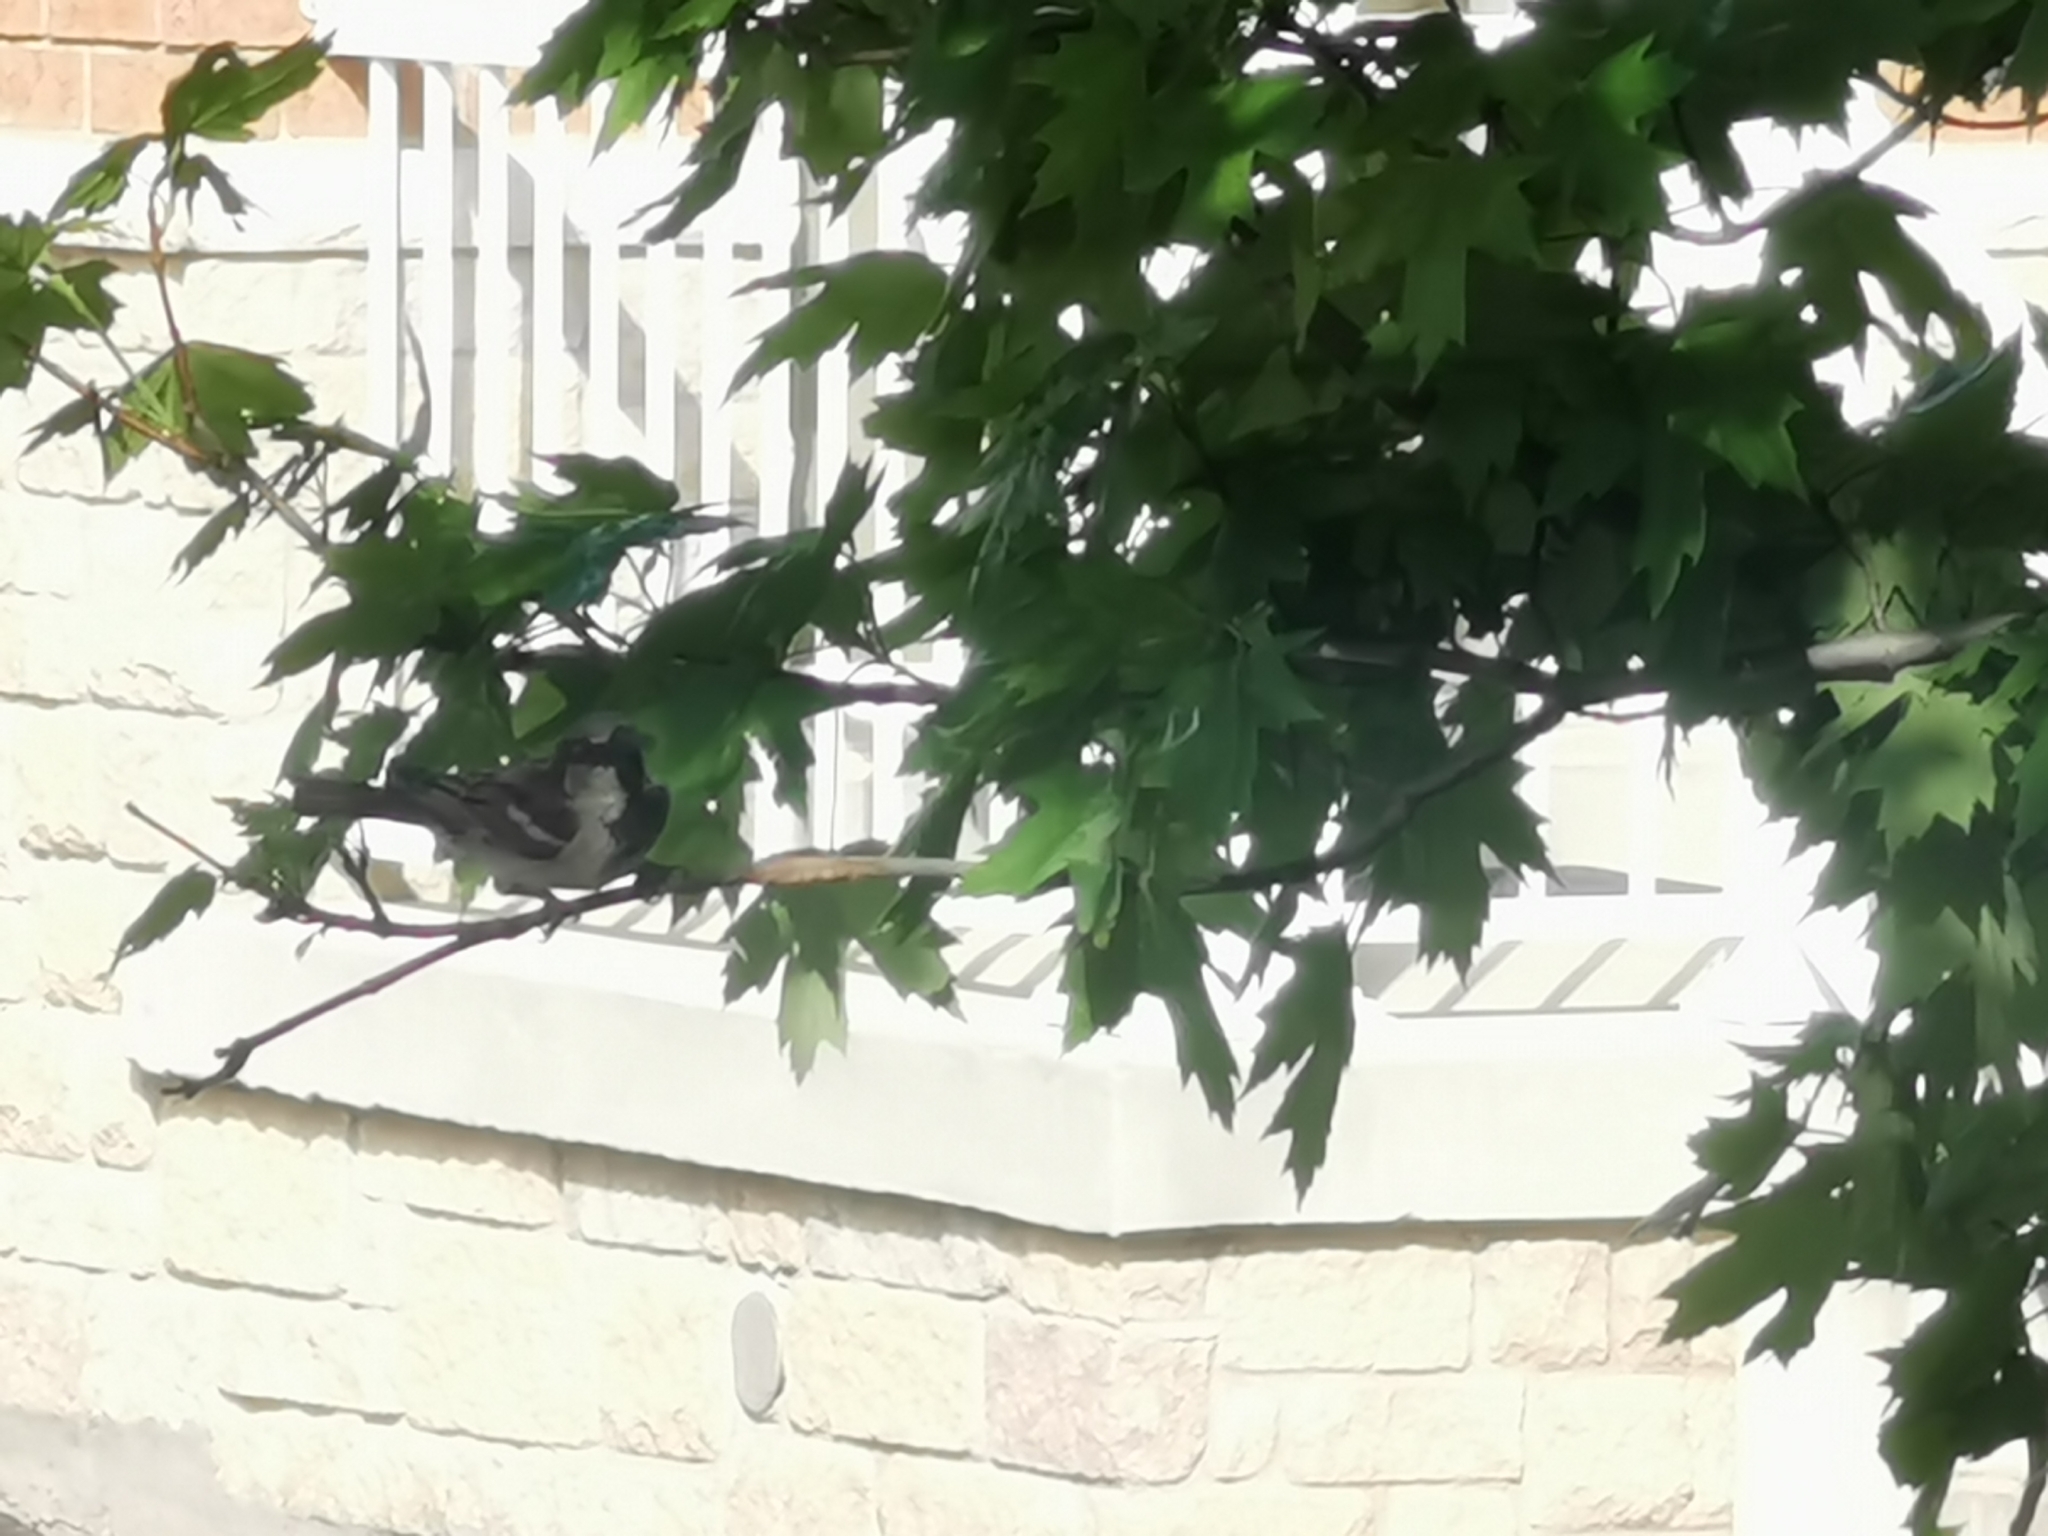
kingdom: Animalia
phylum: Chordata
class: Aves
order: Passeriformes
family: Passeridae
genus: Passer
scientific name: Passer domesticus
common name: House sparrow
